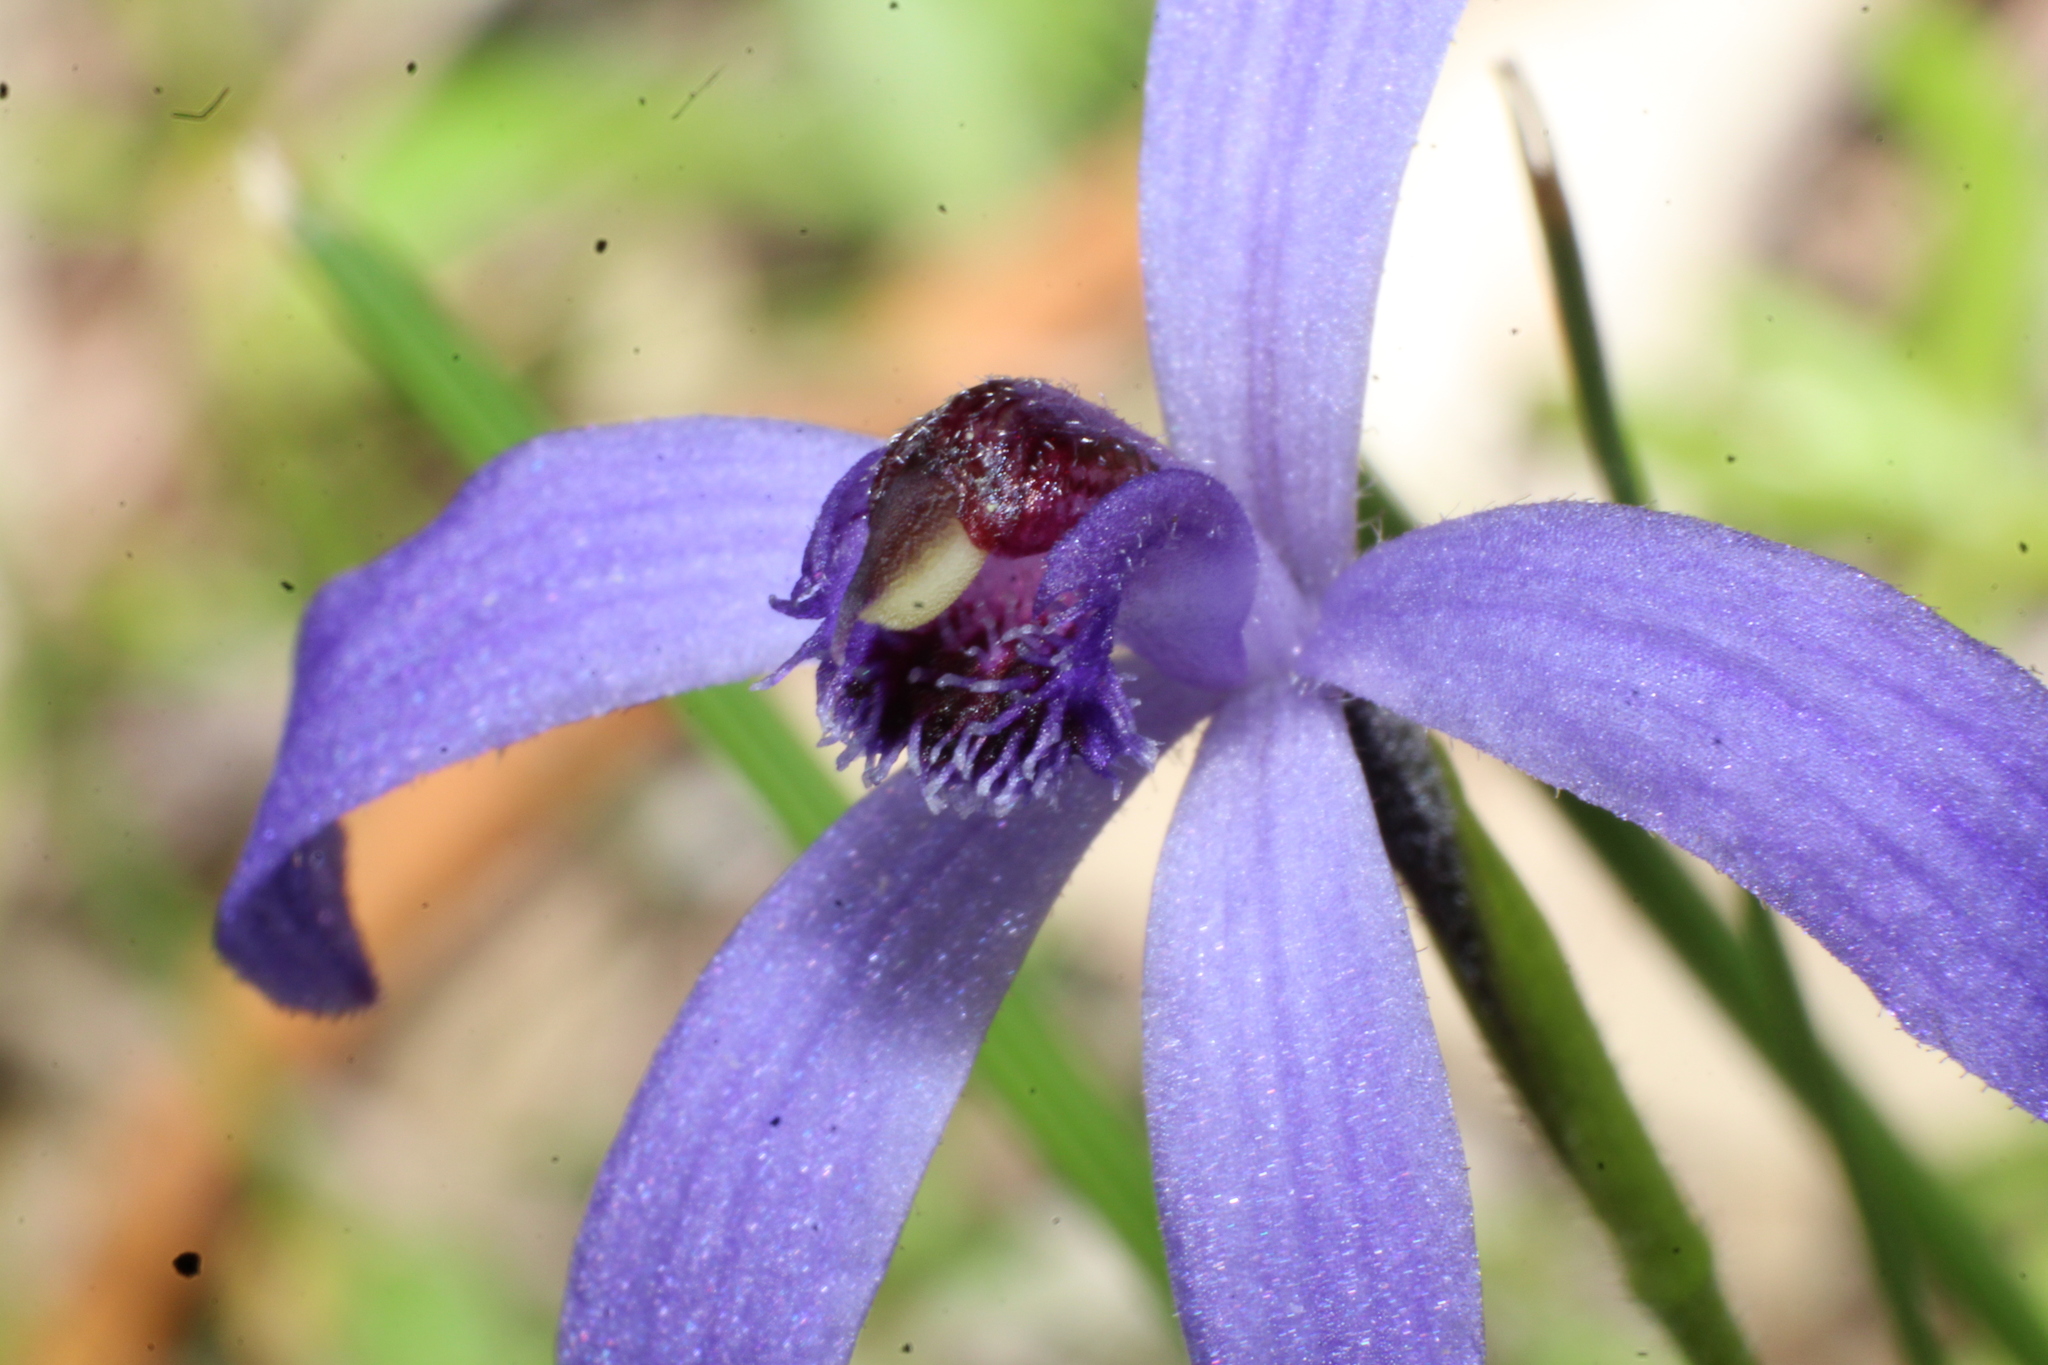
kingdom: Plantae
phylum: Tracheophyta
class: Liliopsida
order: Asparagales
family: Orchidaceae
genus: Pheladenia
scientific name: Pheladenia deformis
